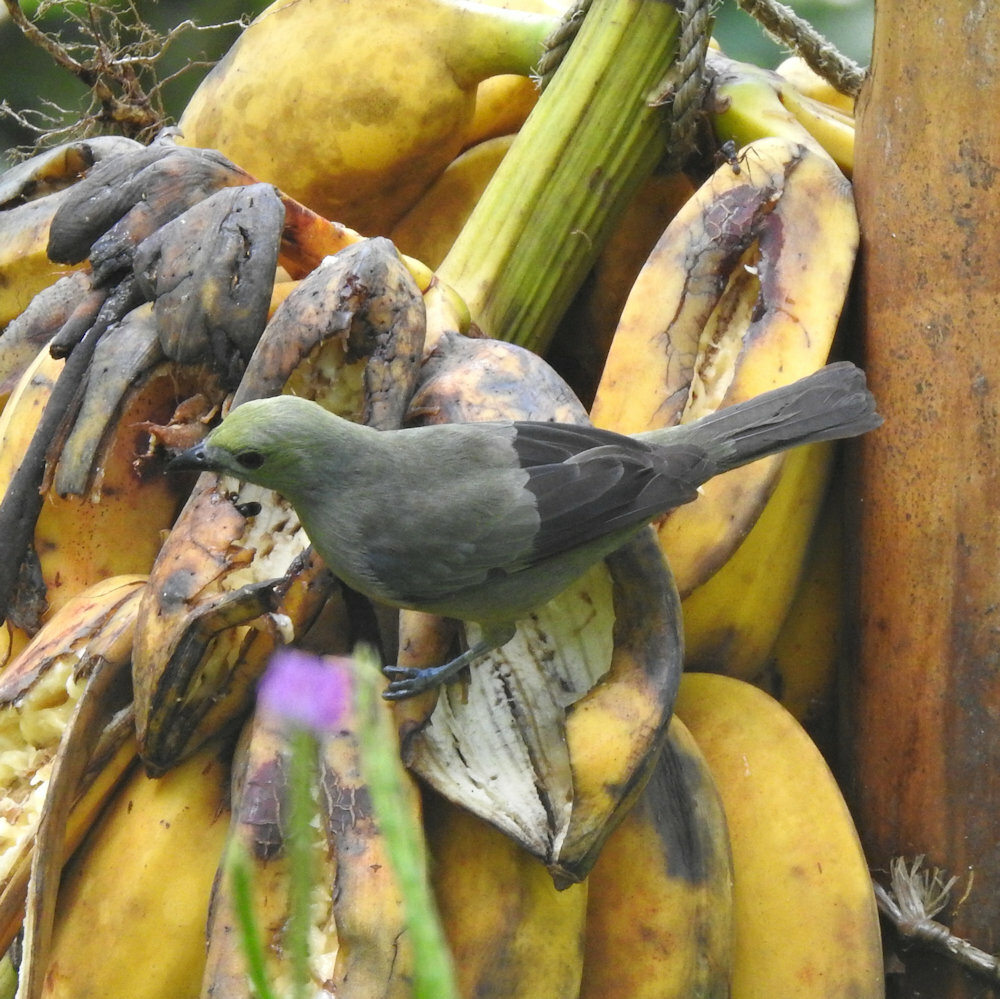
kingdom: Animalia
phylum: Chordata
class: Aves
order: Passeriformes
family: Thraupidae
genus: Thraupis
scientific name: Thraupis palmarum
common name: Palm tanager
